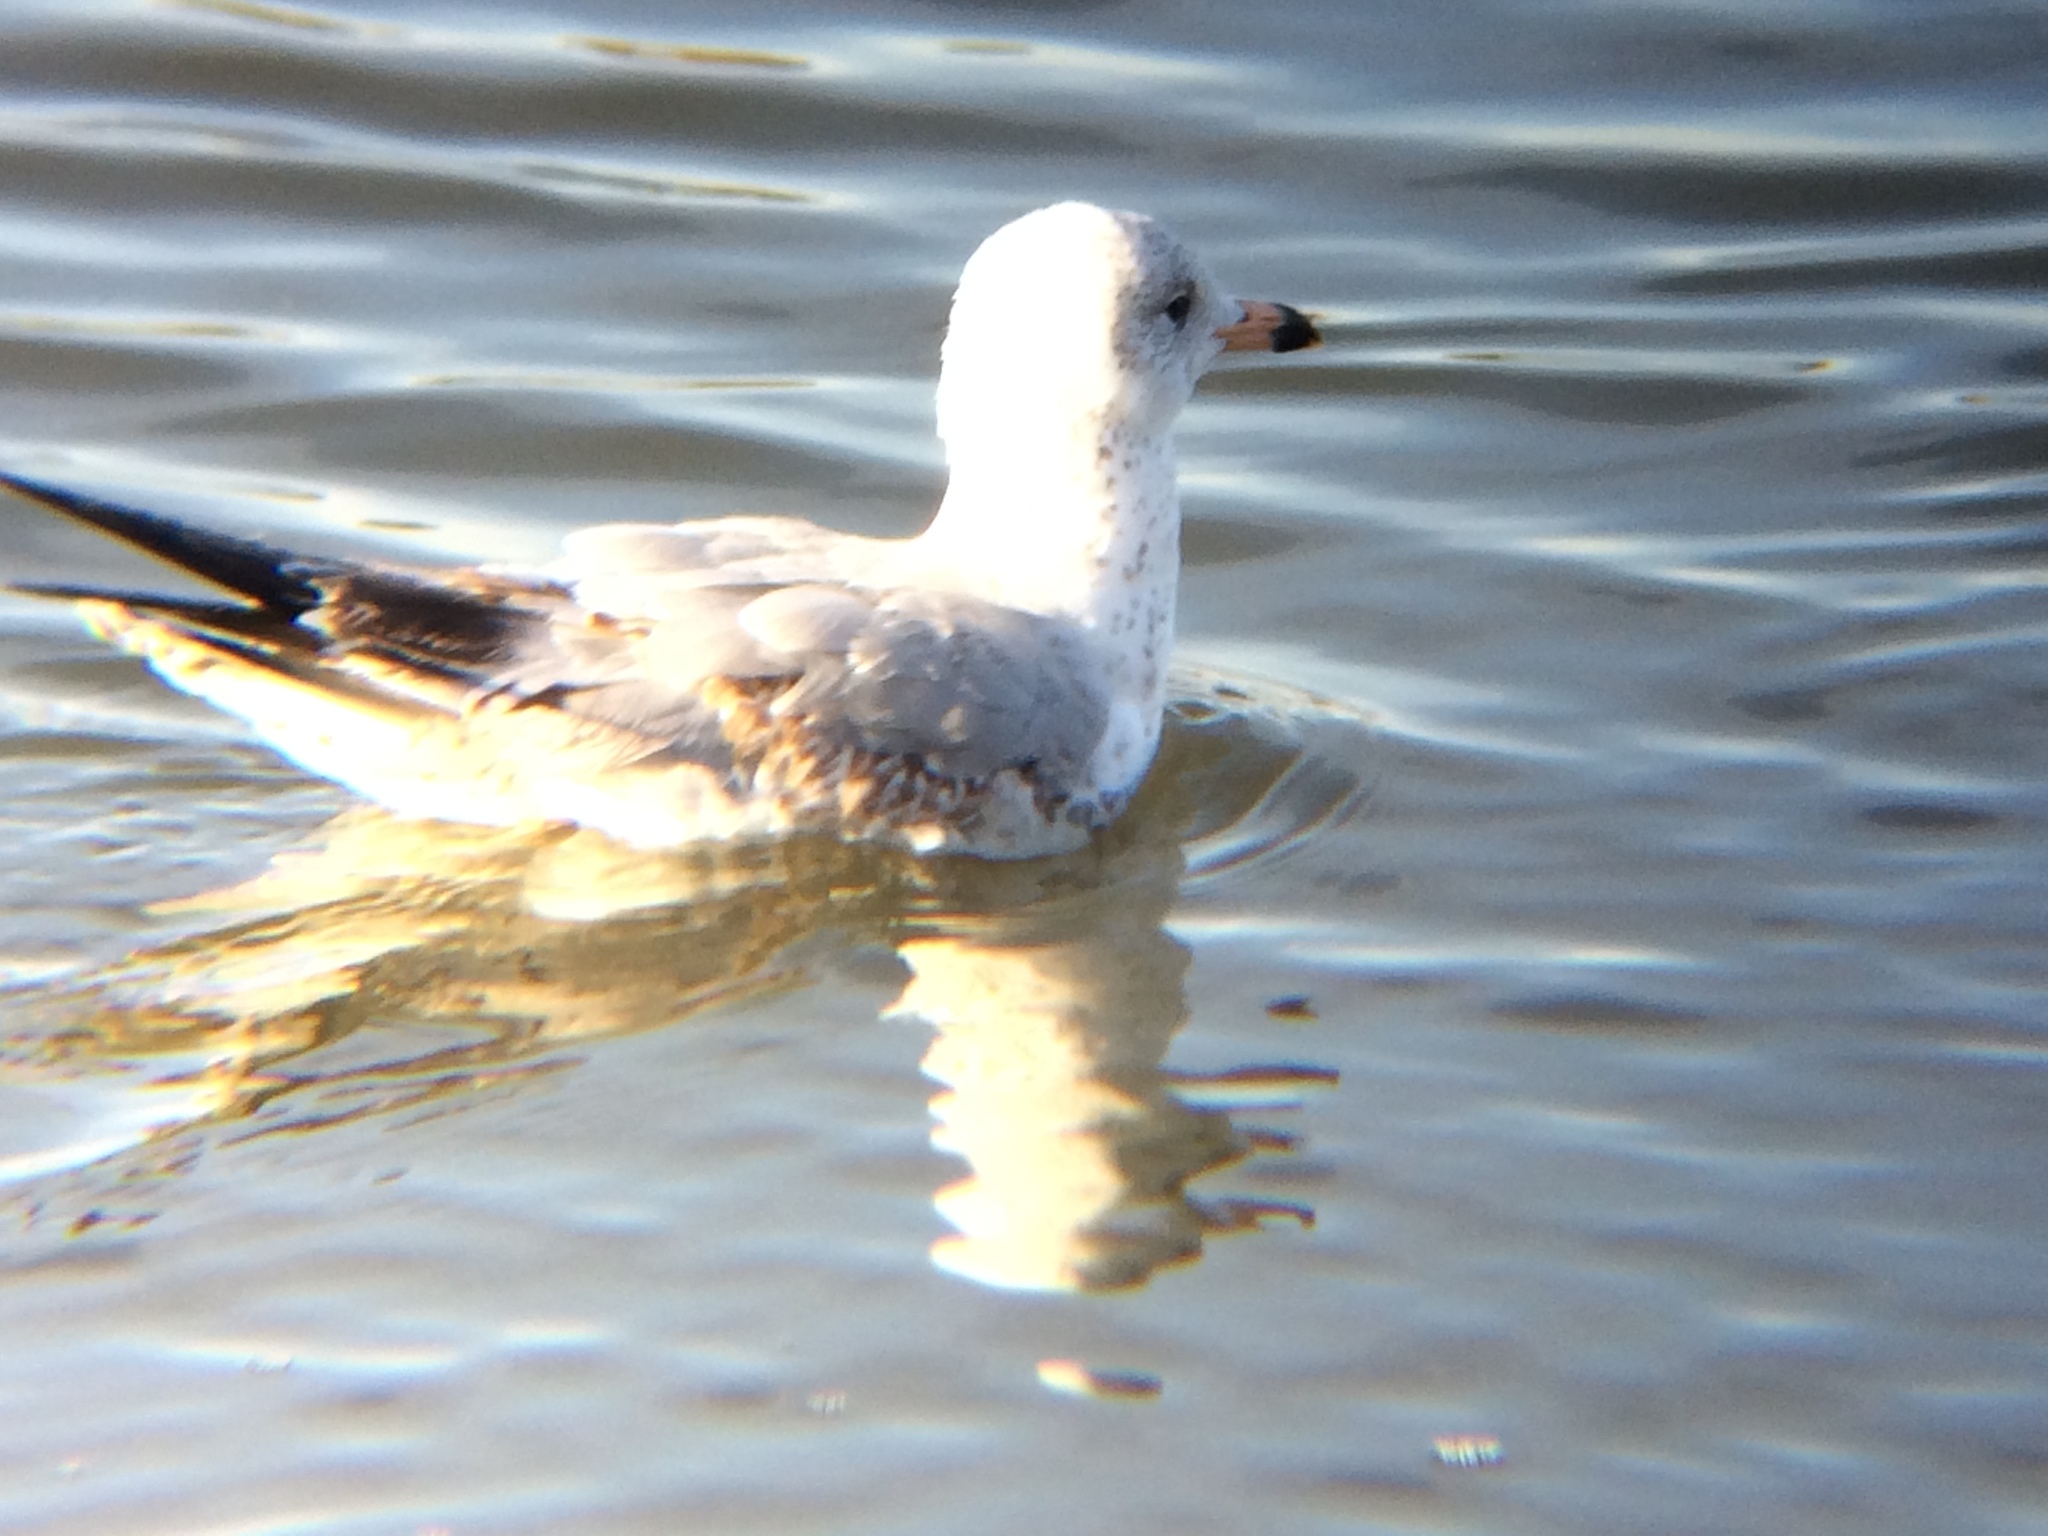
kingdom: Animalia
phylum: Chordata
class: Aves
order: Charadriiformes
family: Laridae
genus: Larus
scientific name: Larus delawarensis
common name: Ring-billed gull
